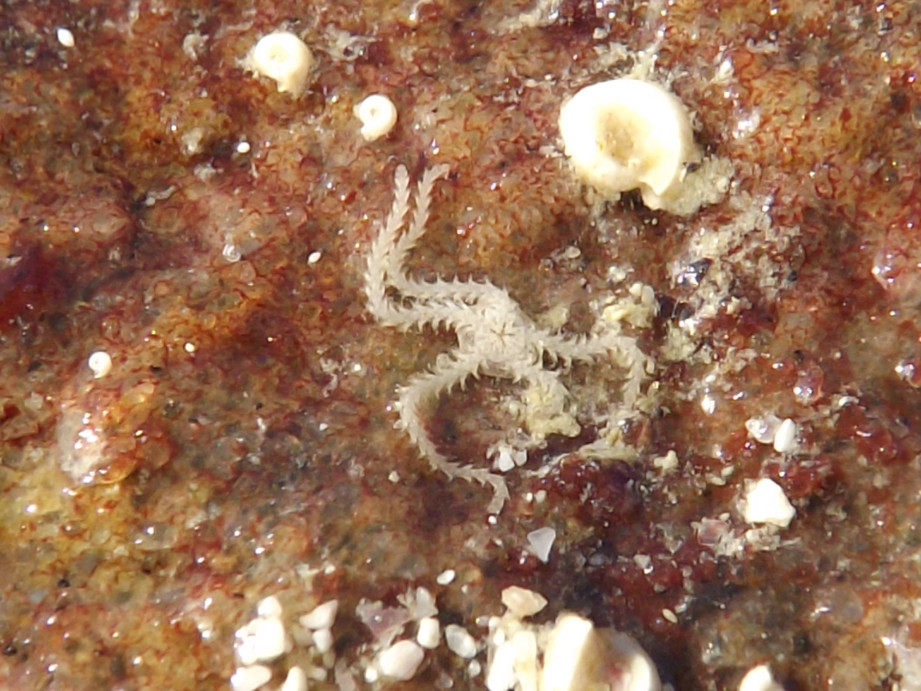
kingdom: Animalia
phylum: Echinodermata
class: Ophiuroidea
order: Amphilepidida
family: Amphiuridae
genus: Amphipholis
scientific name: Amphipholis squamata
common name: Brooding snake star
